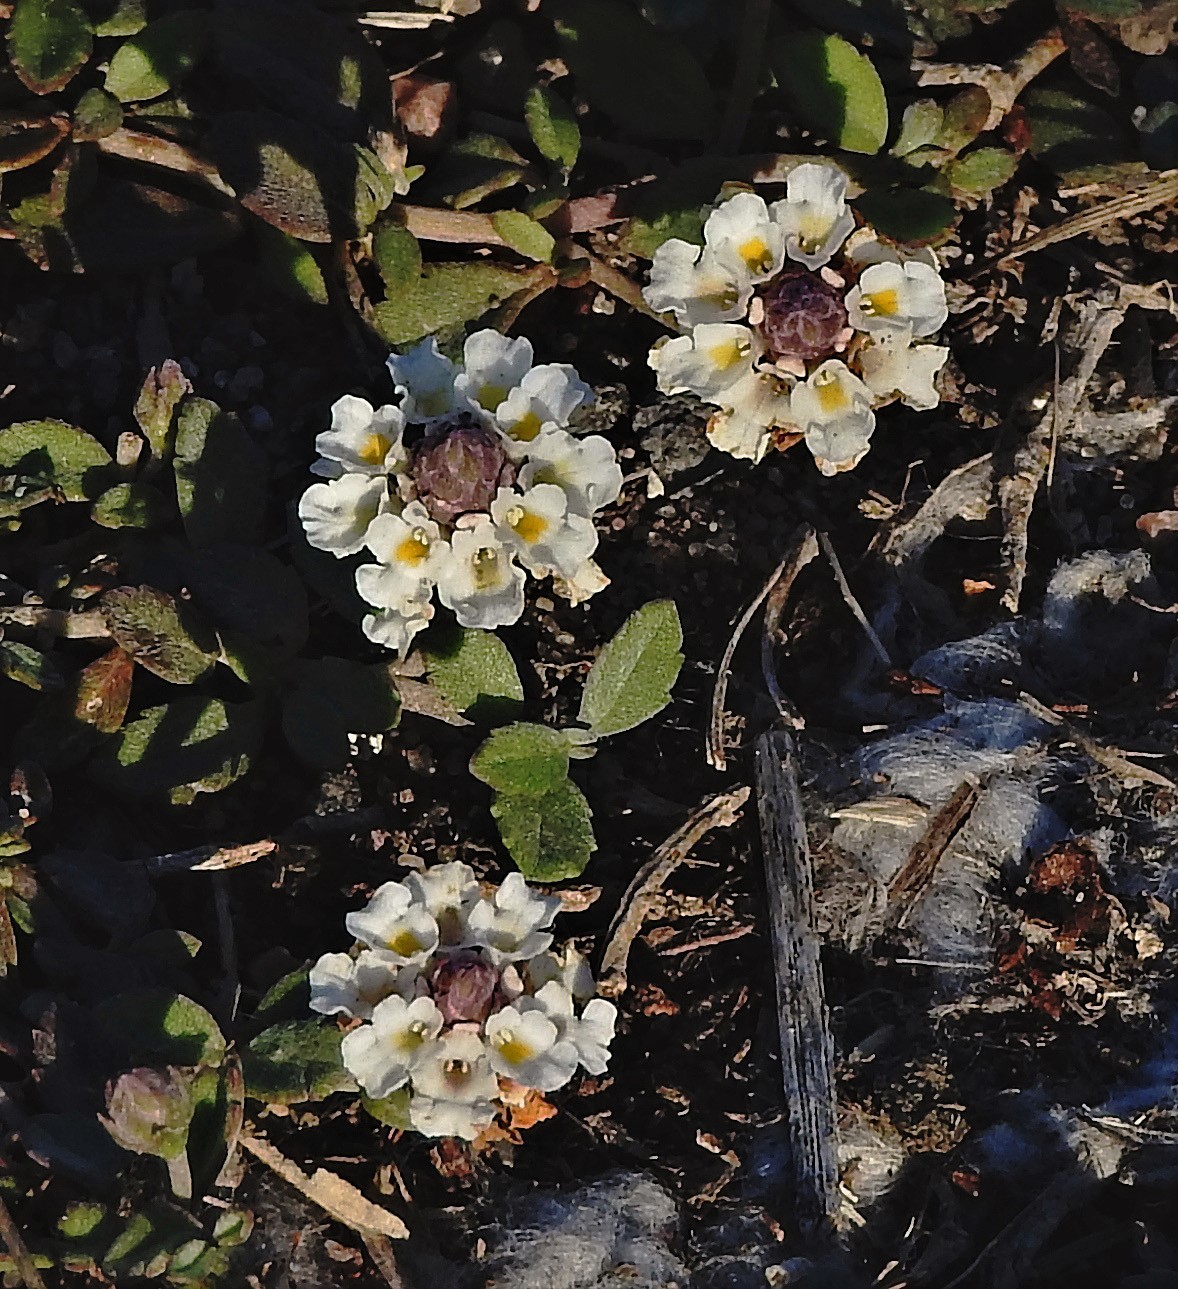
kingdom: Plantae
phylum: Tracheophyta
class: Magnoliopsida
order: Lamiales
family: Verbenaceae
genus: Phyla
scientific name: Phyla nodiflora
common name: Frogfruit
